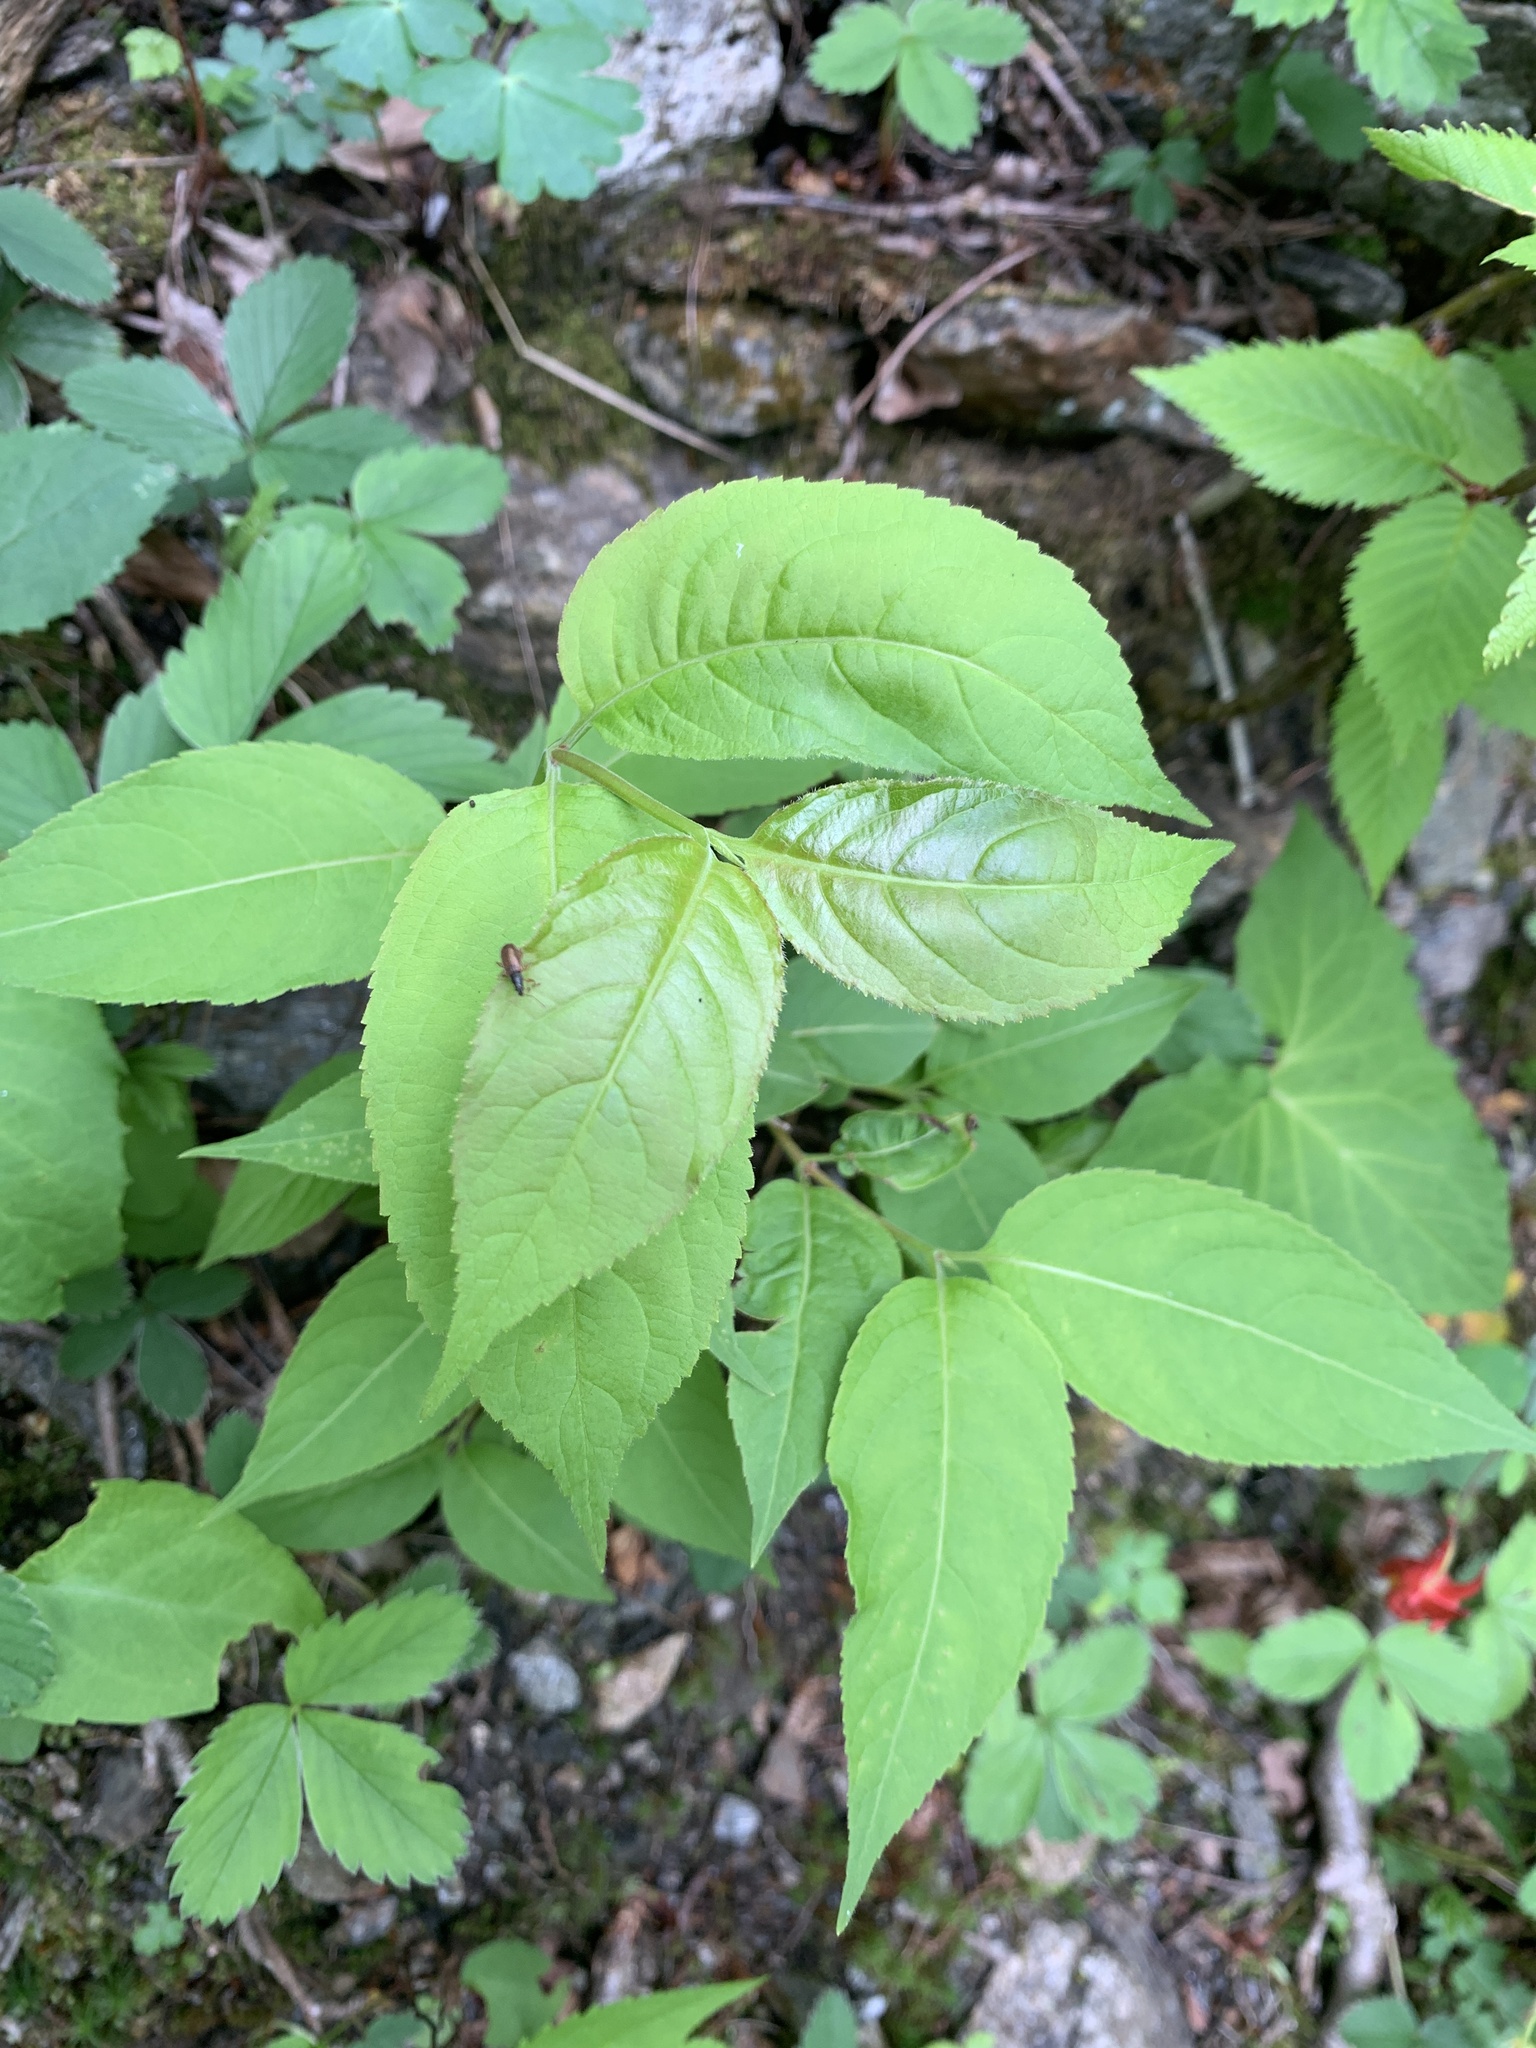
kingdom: Plantae
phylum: Tracheophyta
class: Magnoliopsida
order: Dipsacales
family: Caprifoliaceae
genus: Diervilla
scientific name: Diervilla lonicera
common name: Bush-honeysuckle
